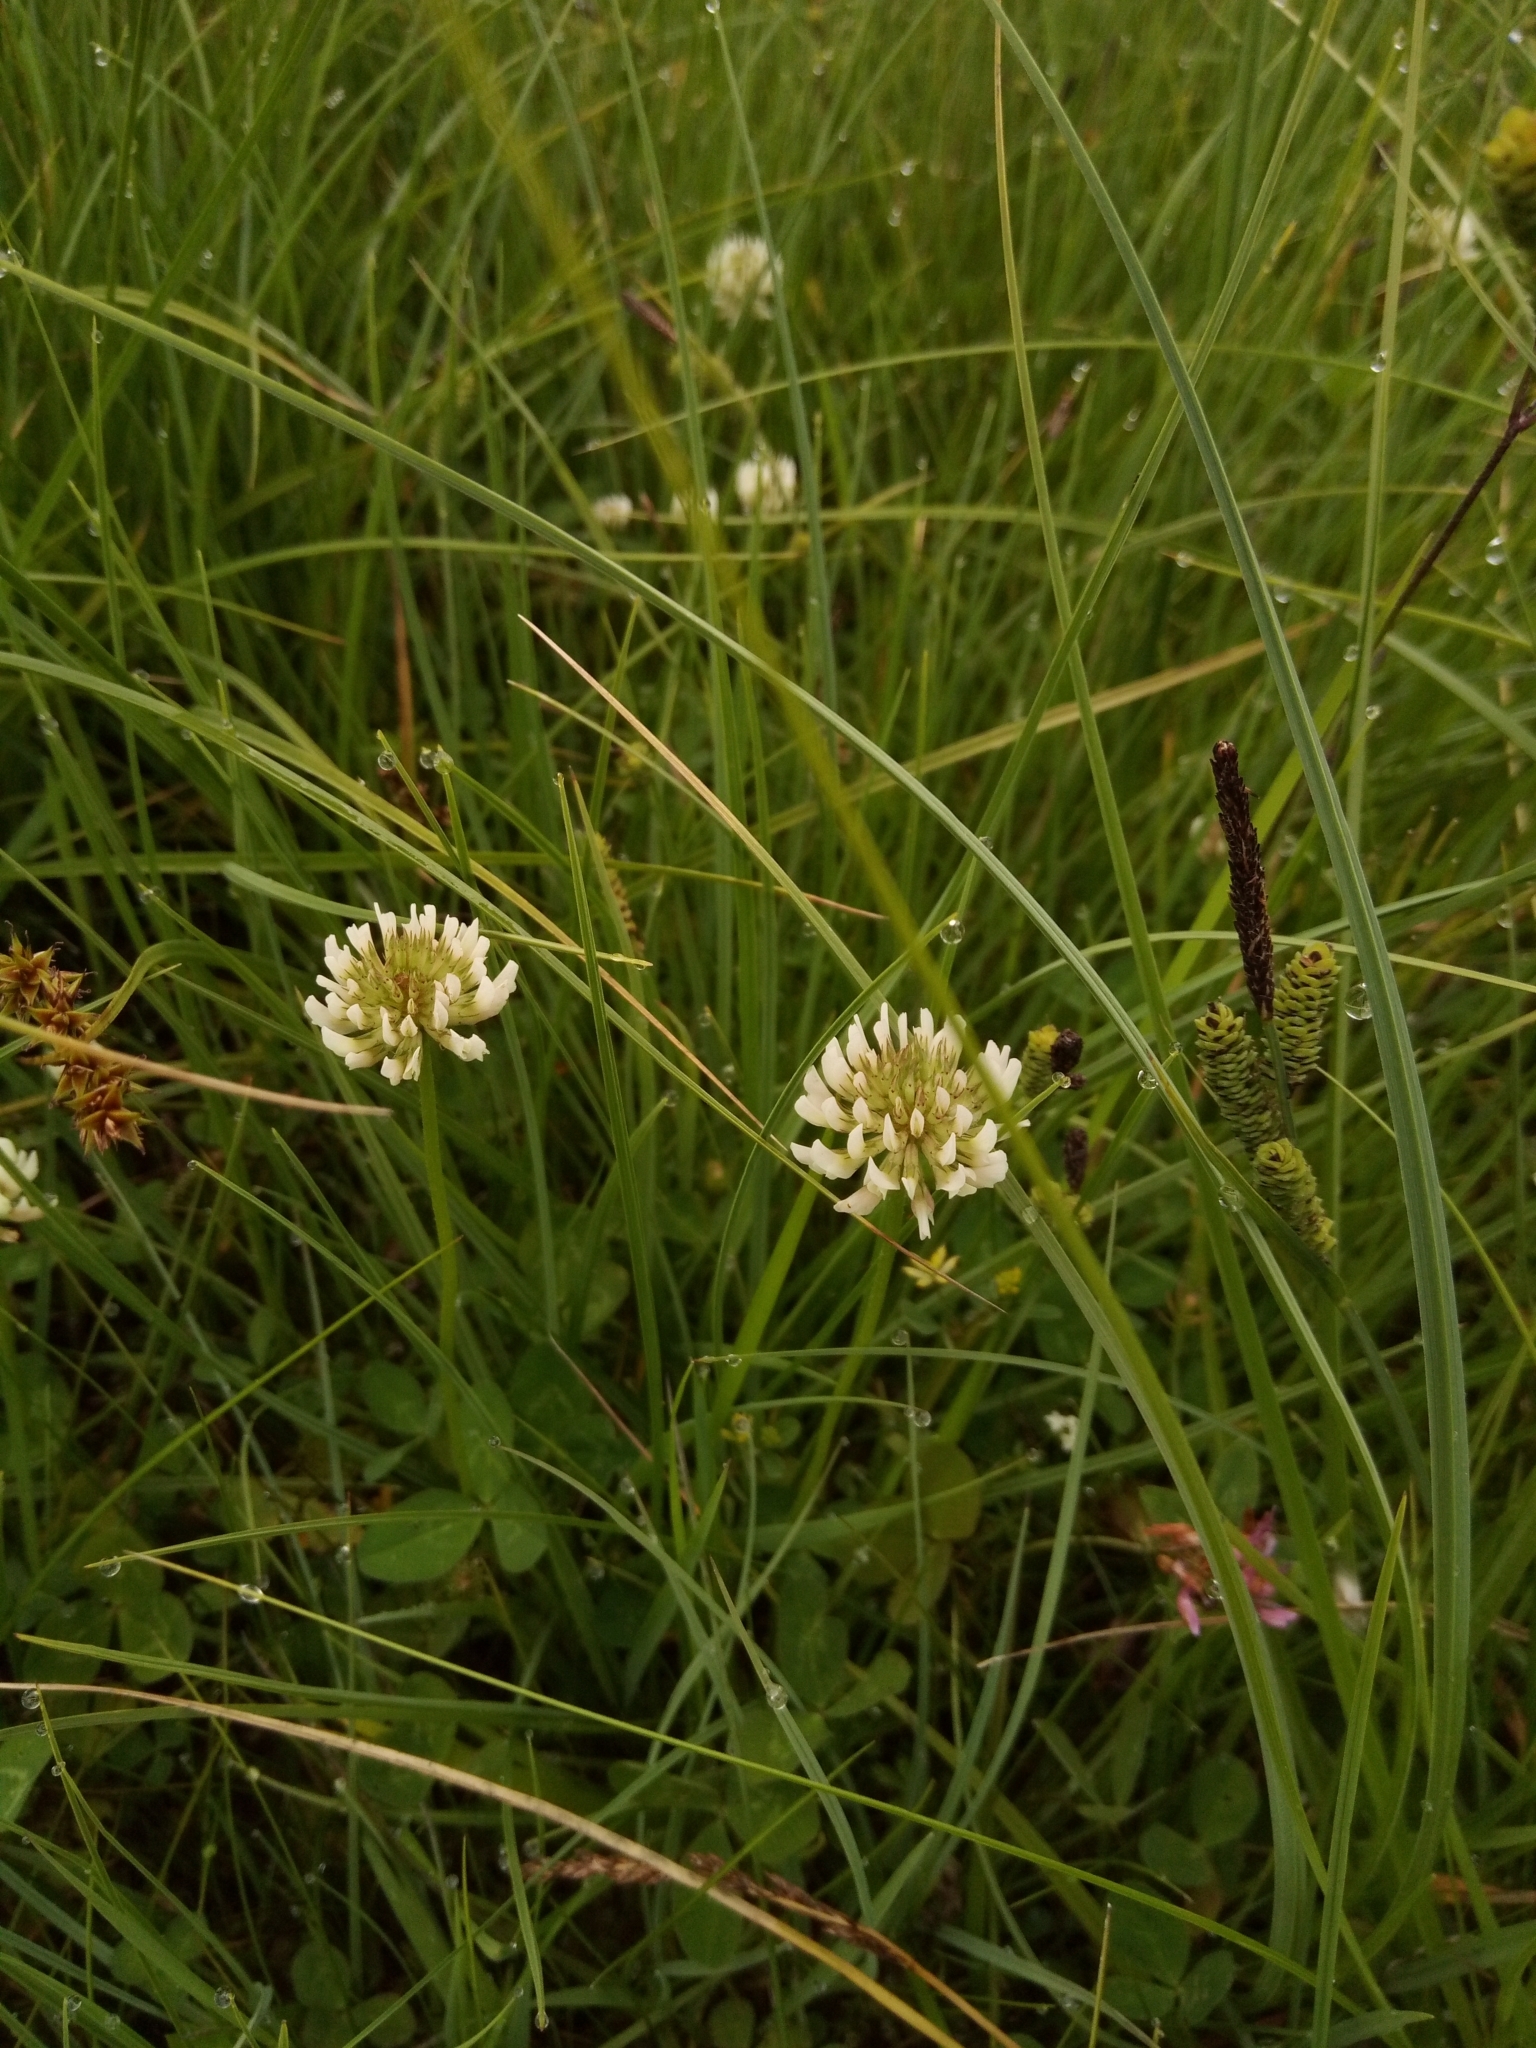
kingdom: Plantae
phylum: Tracheophyta
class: Magnoliopsida
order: Fabales
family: Fabaceae
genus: Trifolium
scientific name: Trifolium repens
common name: White clover
